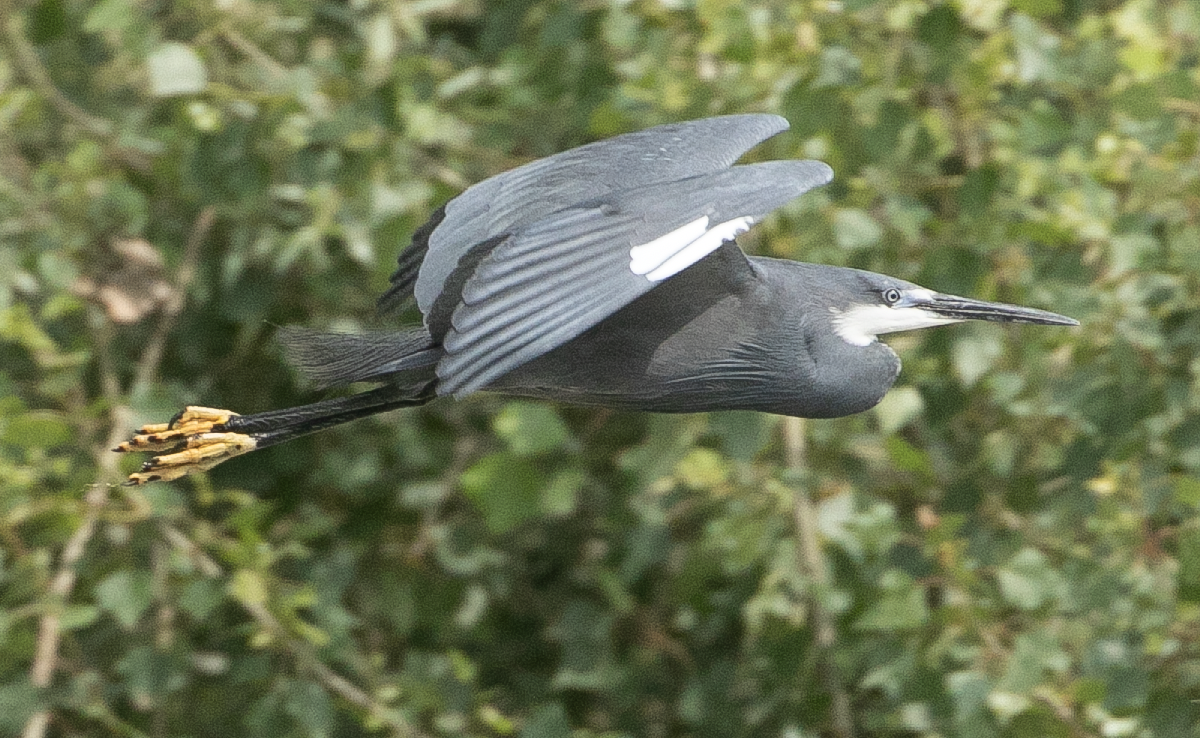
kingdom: Animalia
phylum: Chordata
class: Aves
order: Pelecaniformes
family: Ardeidae
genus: Egretta
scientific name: Egretta gularis
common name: Western reef-heron
